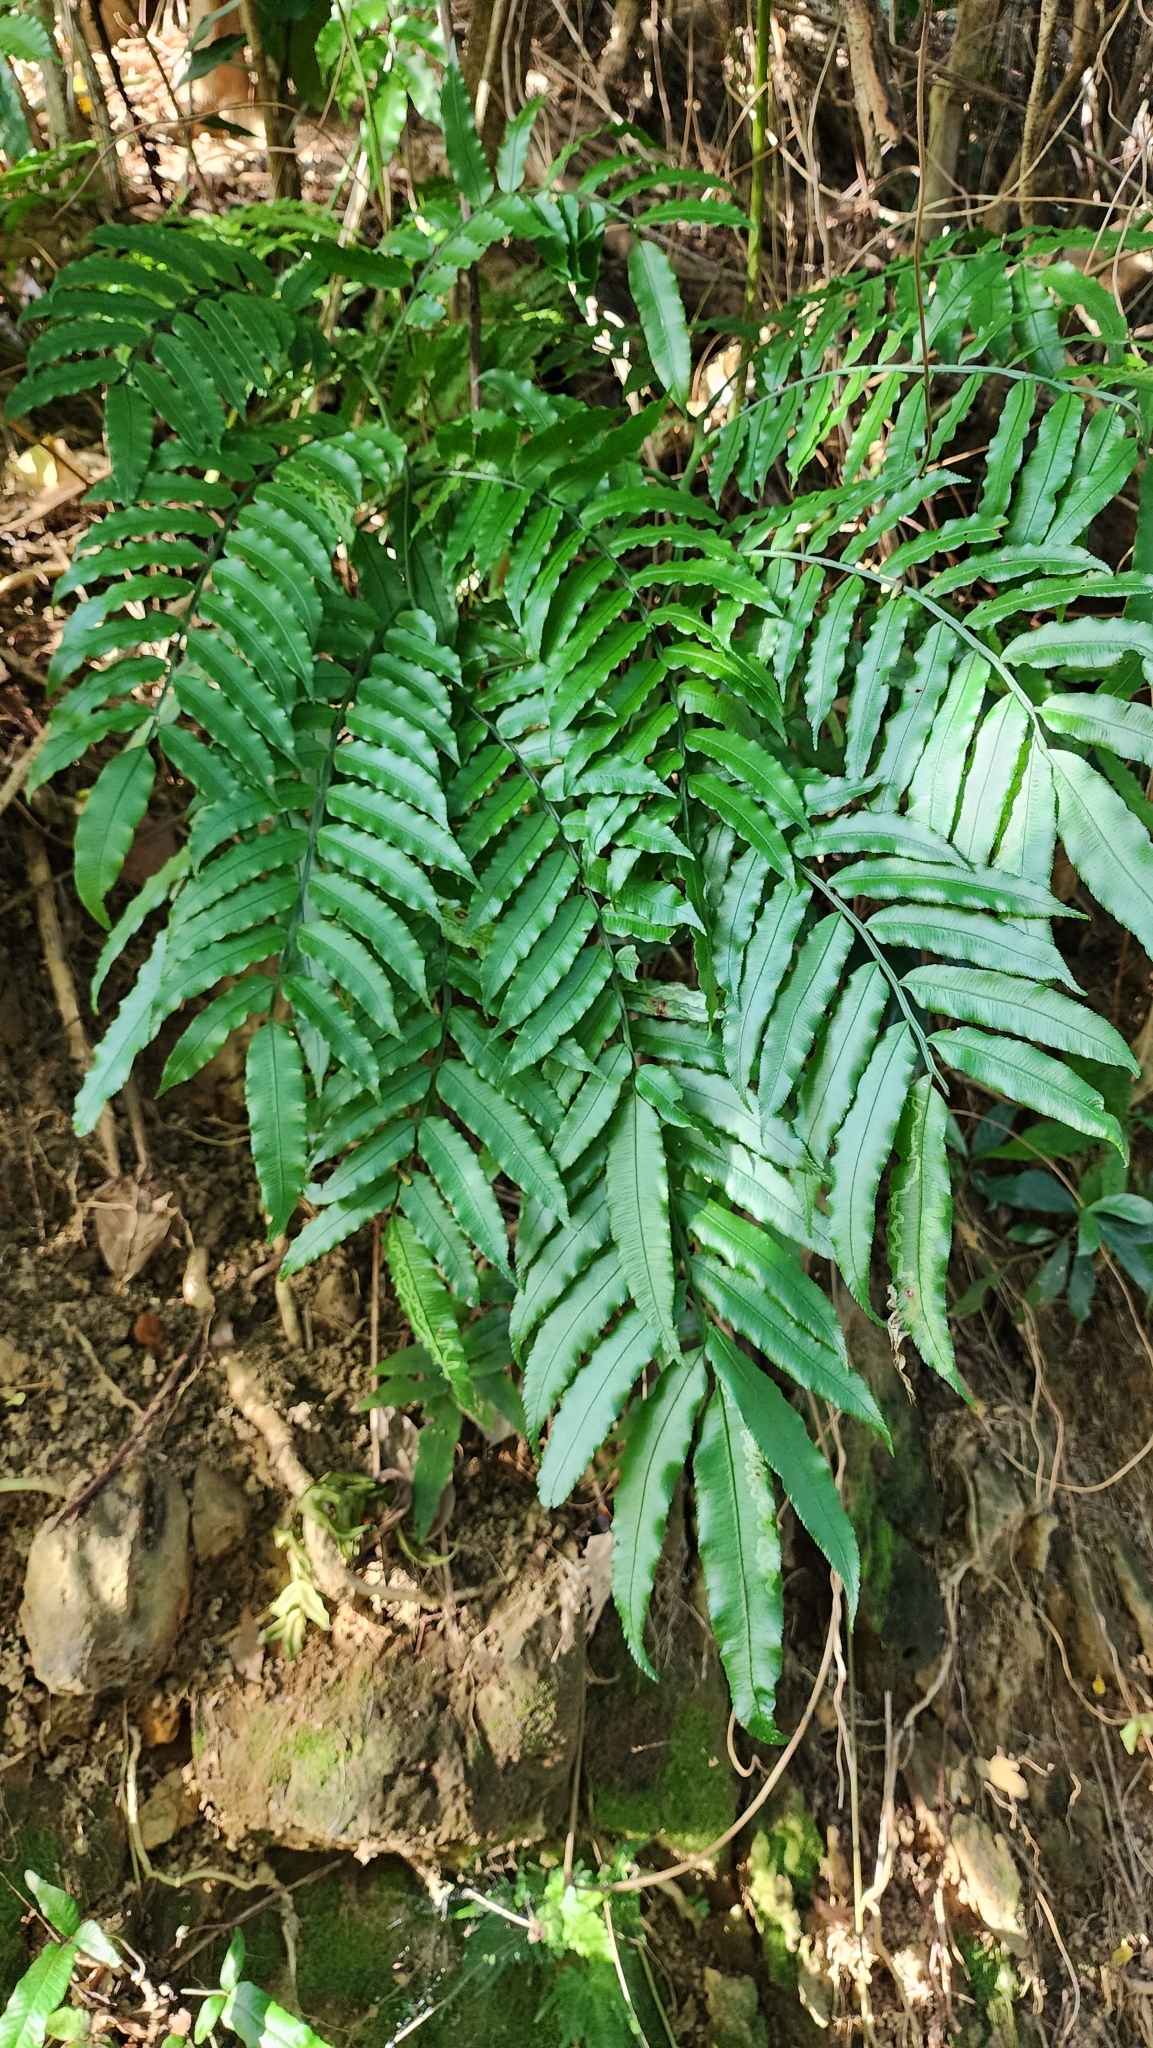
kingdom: Plantae
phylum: Tracheophyta
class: Polypodiopsida
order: Marattiales
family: Marattiaceae
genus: Angiopteris
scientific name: Angiopteris lygodiifolia
